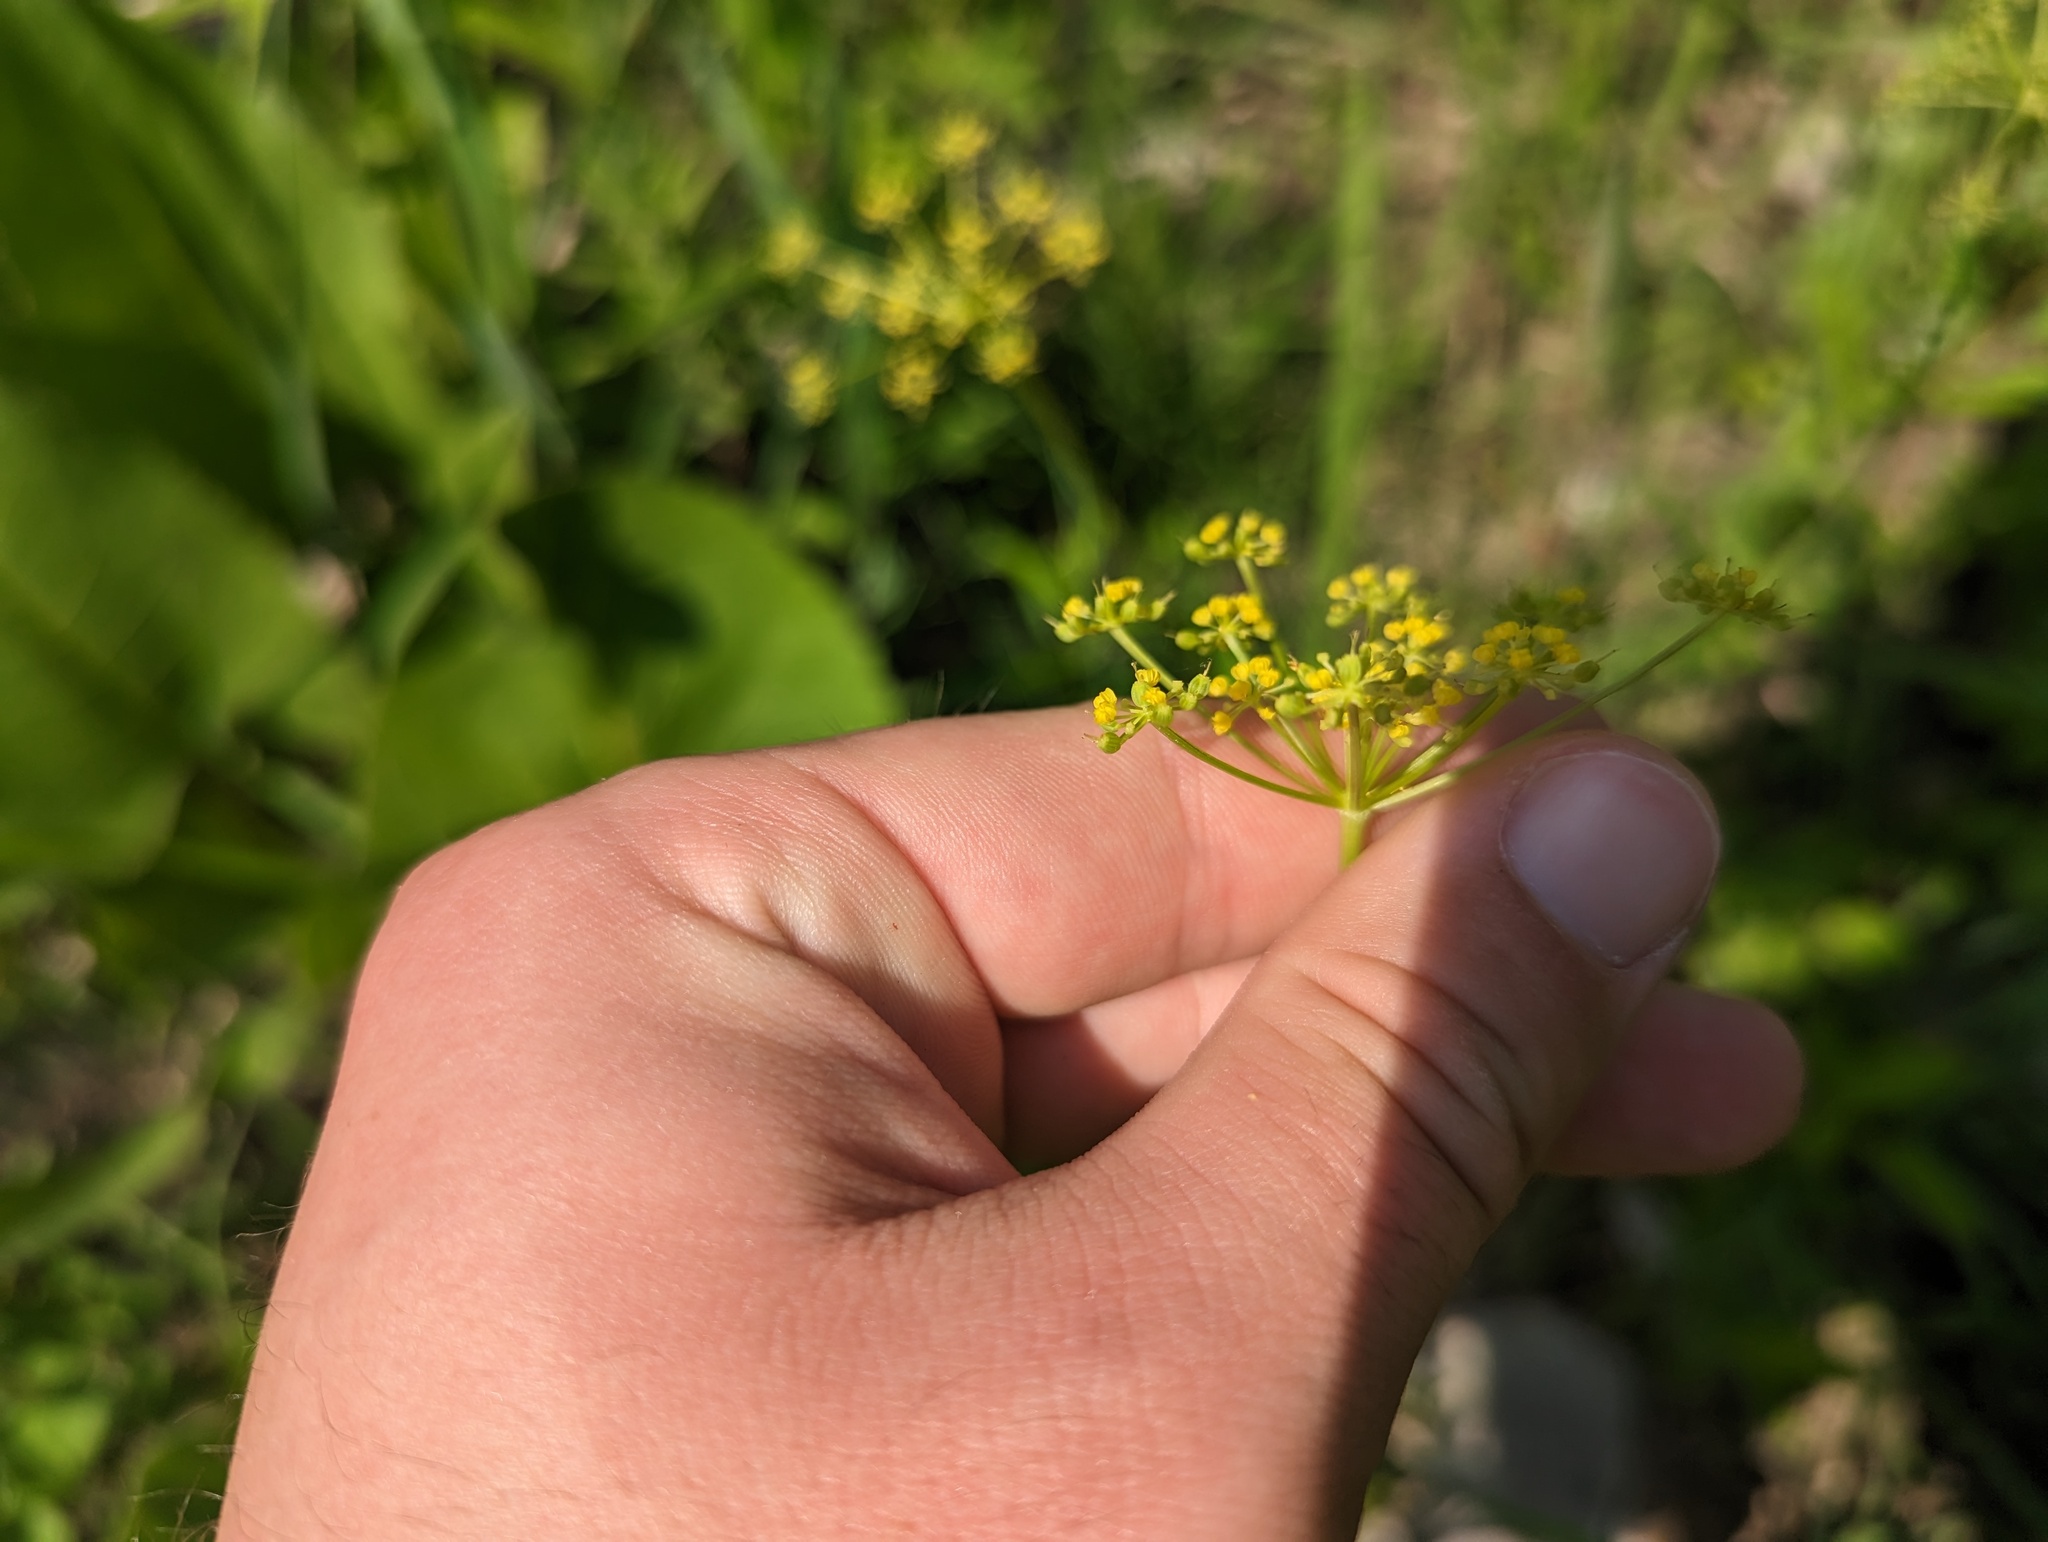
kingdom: Plantae
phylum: Tracheophyta
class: Magnoliopsida
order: Apiales
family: Apiaceae
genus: Zizia
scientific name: Zizia aurea
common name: Golden alexanders
